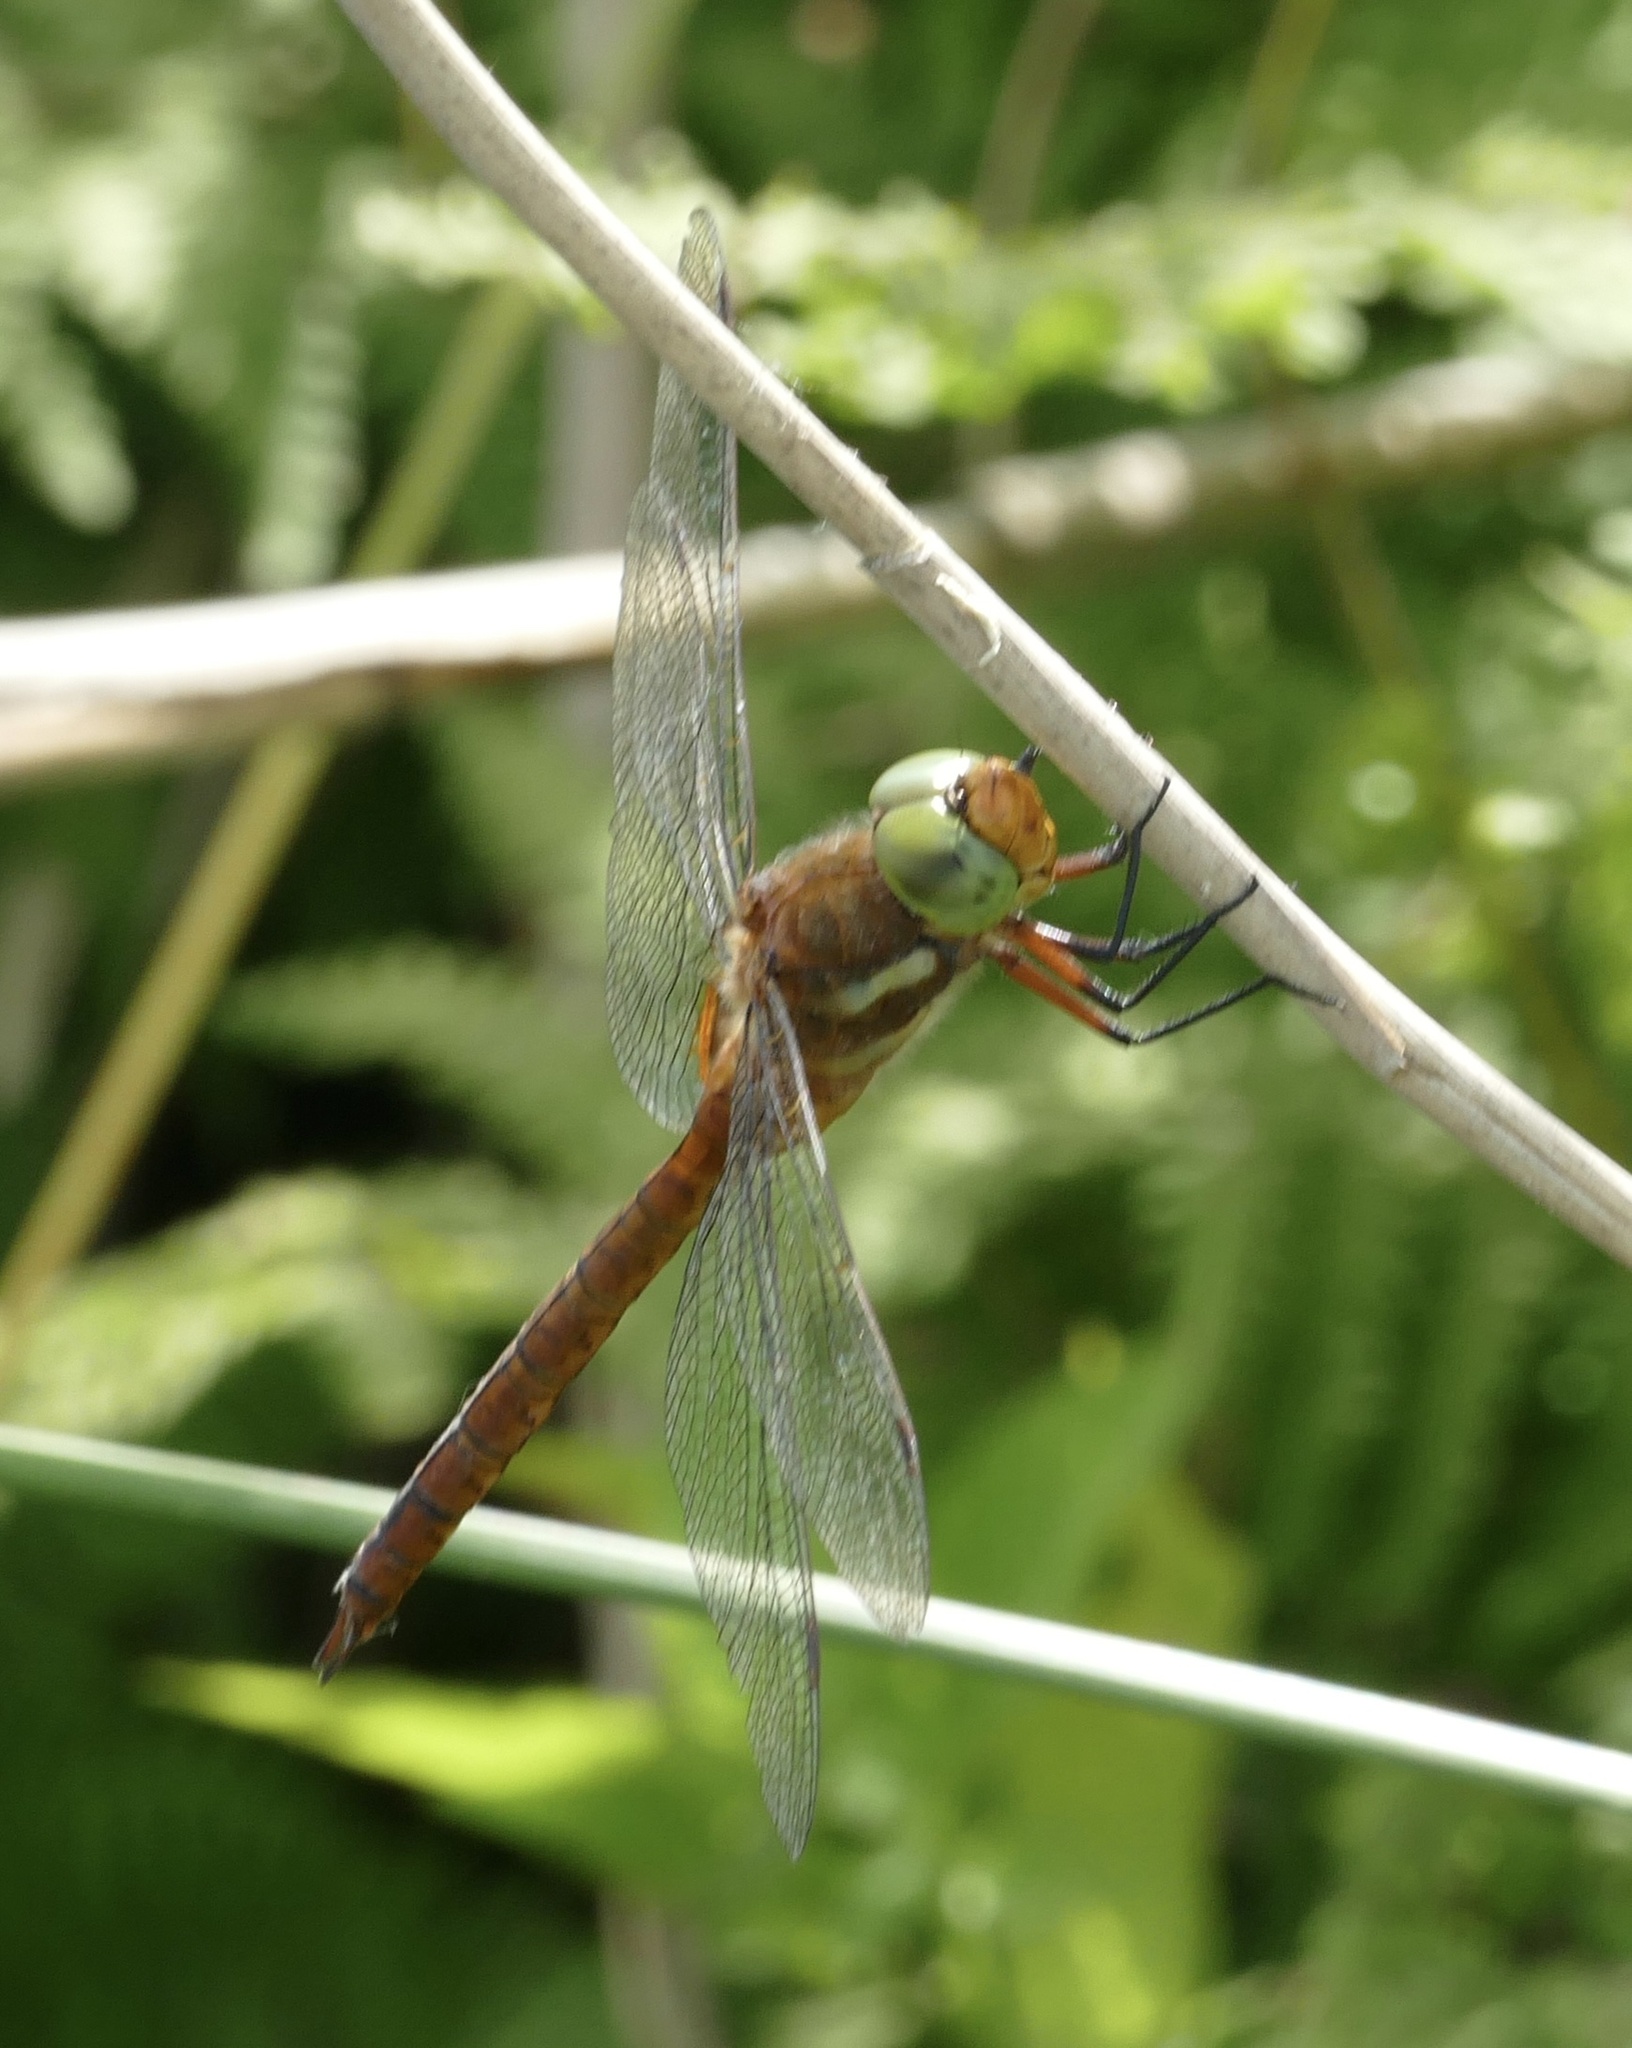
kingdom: Animalia
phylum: Arthropoda
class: Insecta
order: Odonata
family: Aeshnidae
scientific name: Aeshnidae
